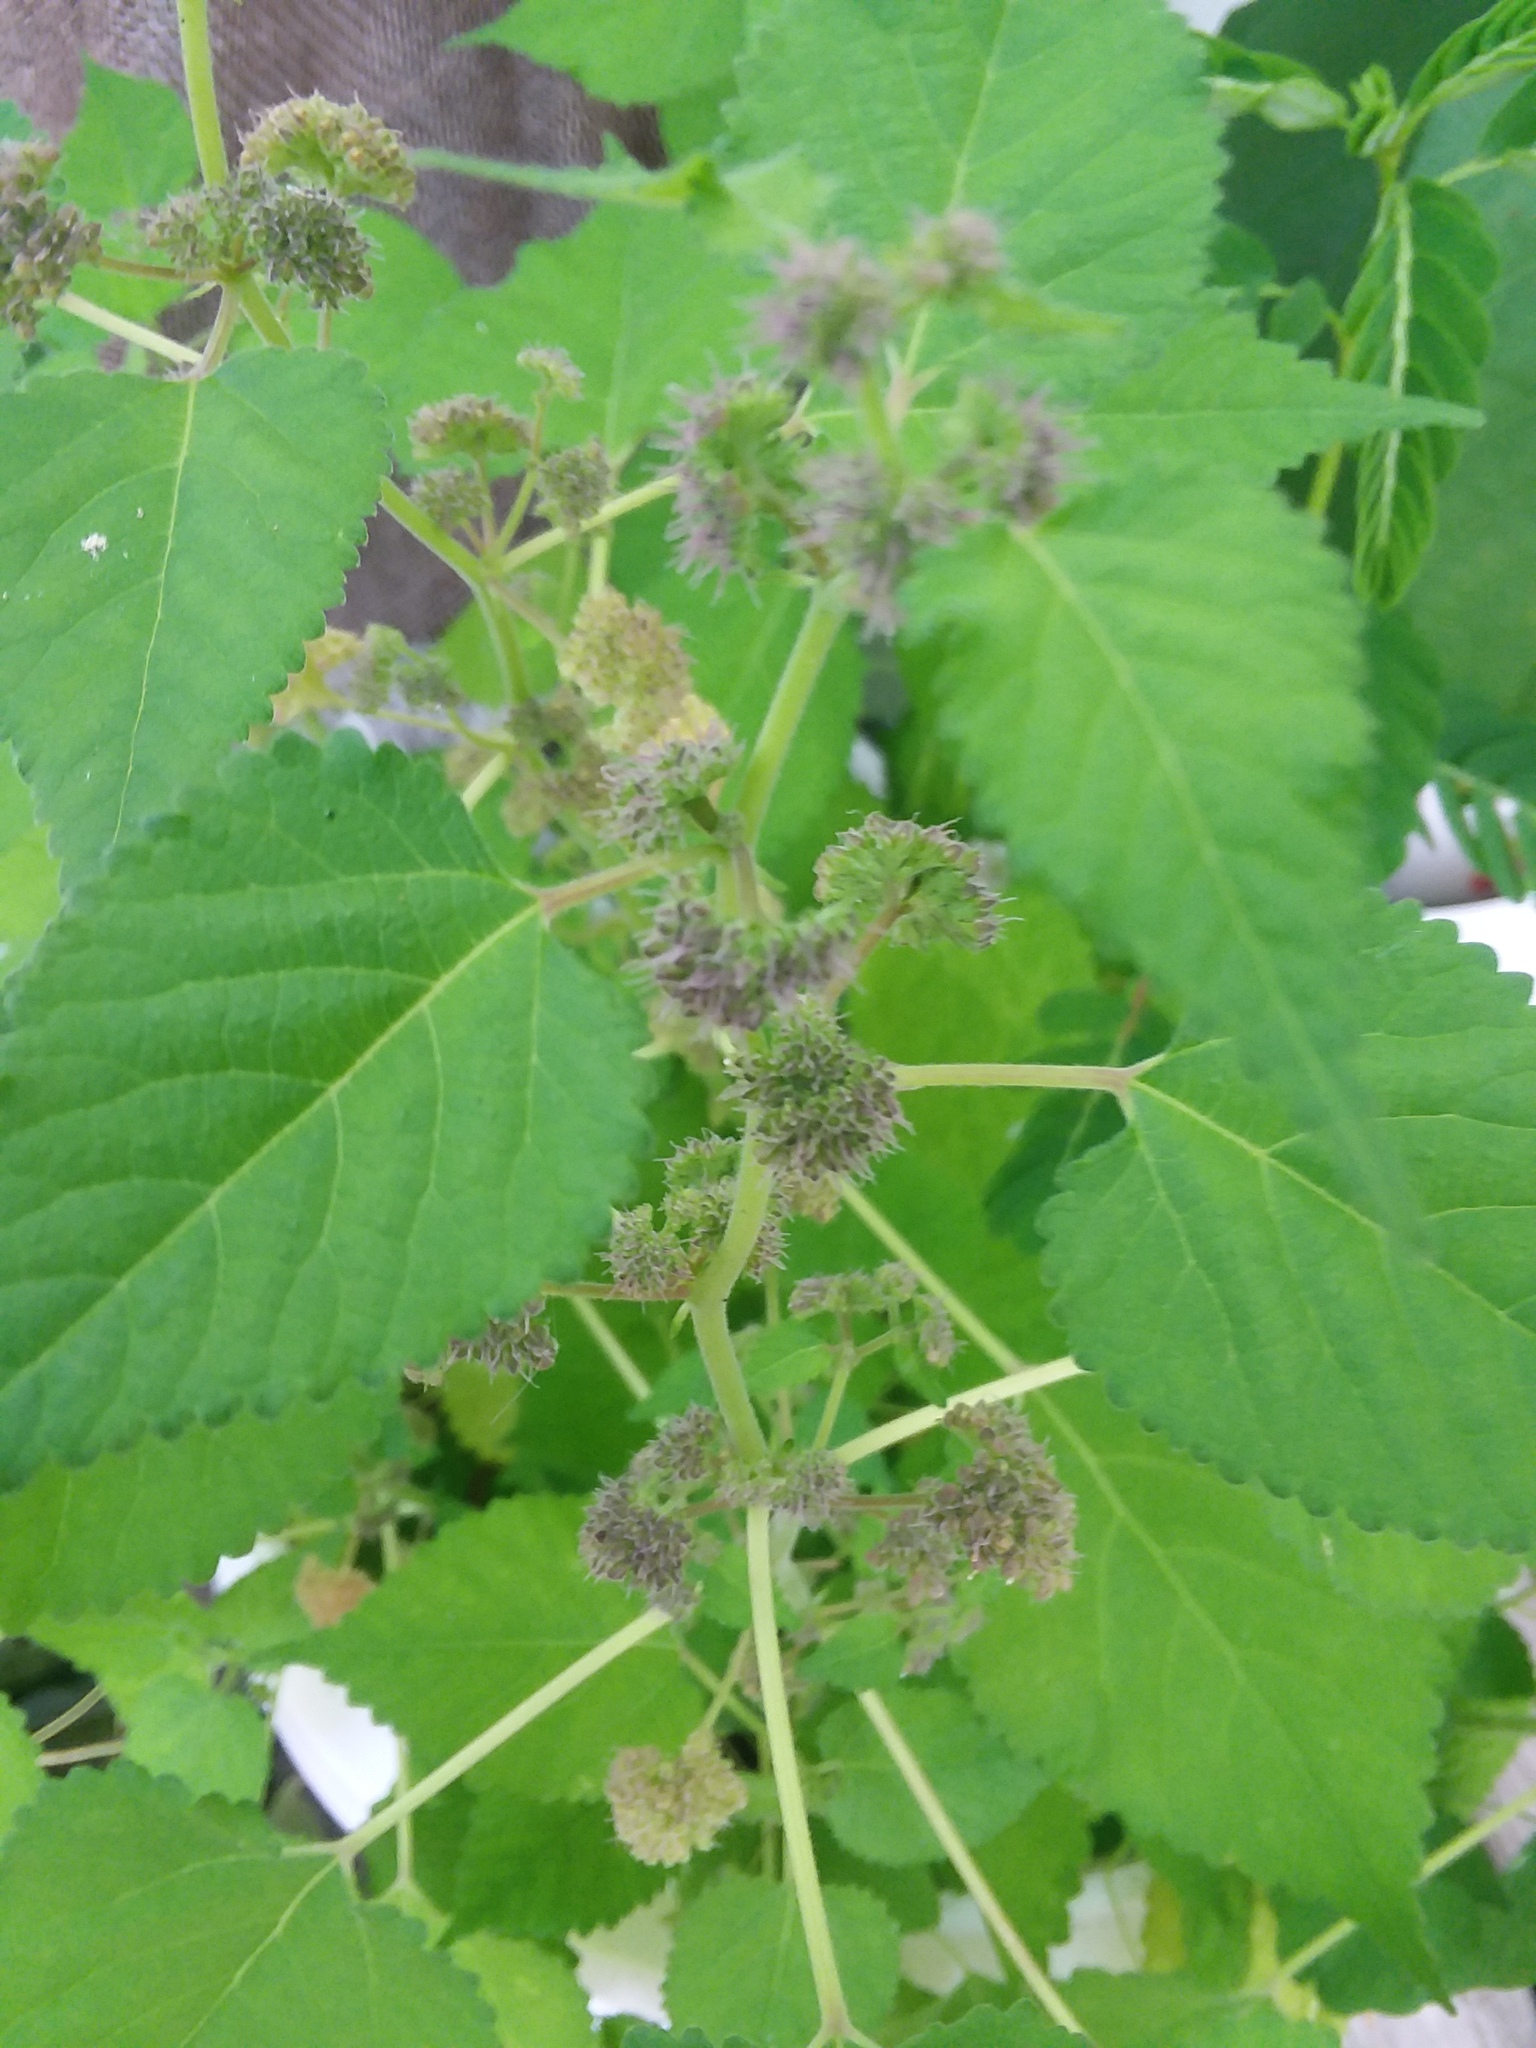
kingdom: Plantae
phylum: Tracheophyta
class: Magnoliopsida
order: Rosales
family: Moraceae
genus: Fatoua
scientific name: Fatoua villosa
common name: Hairy crabweed
